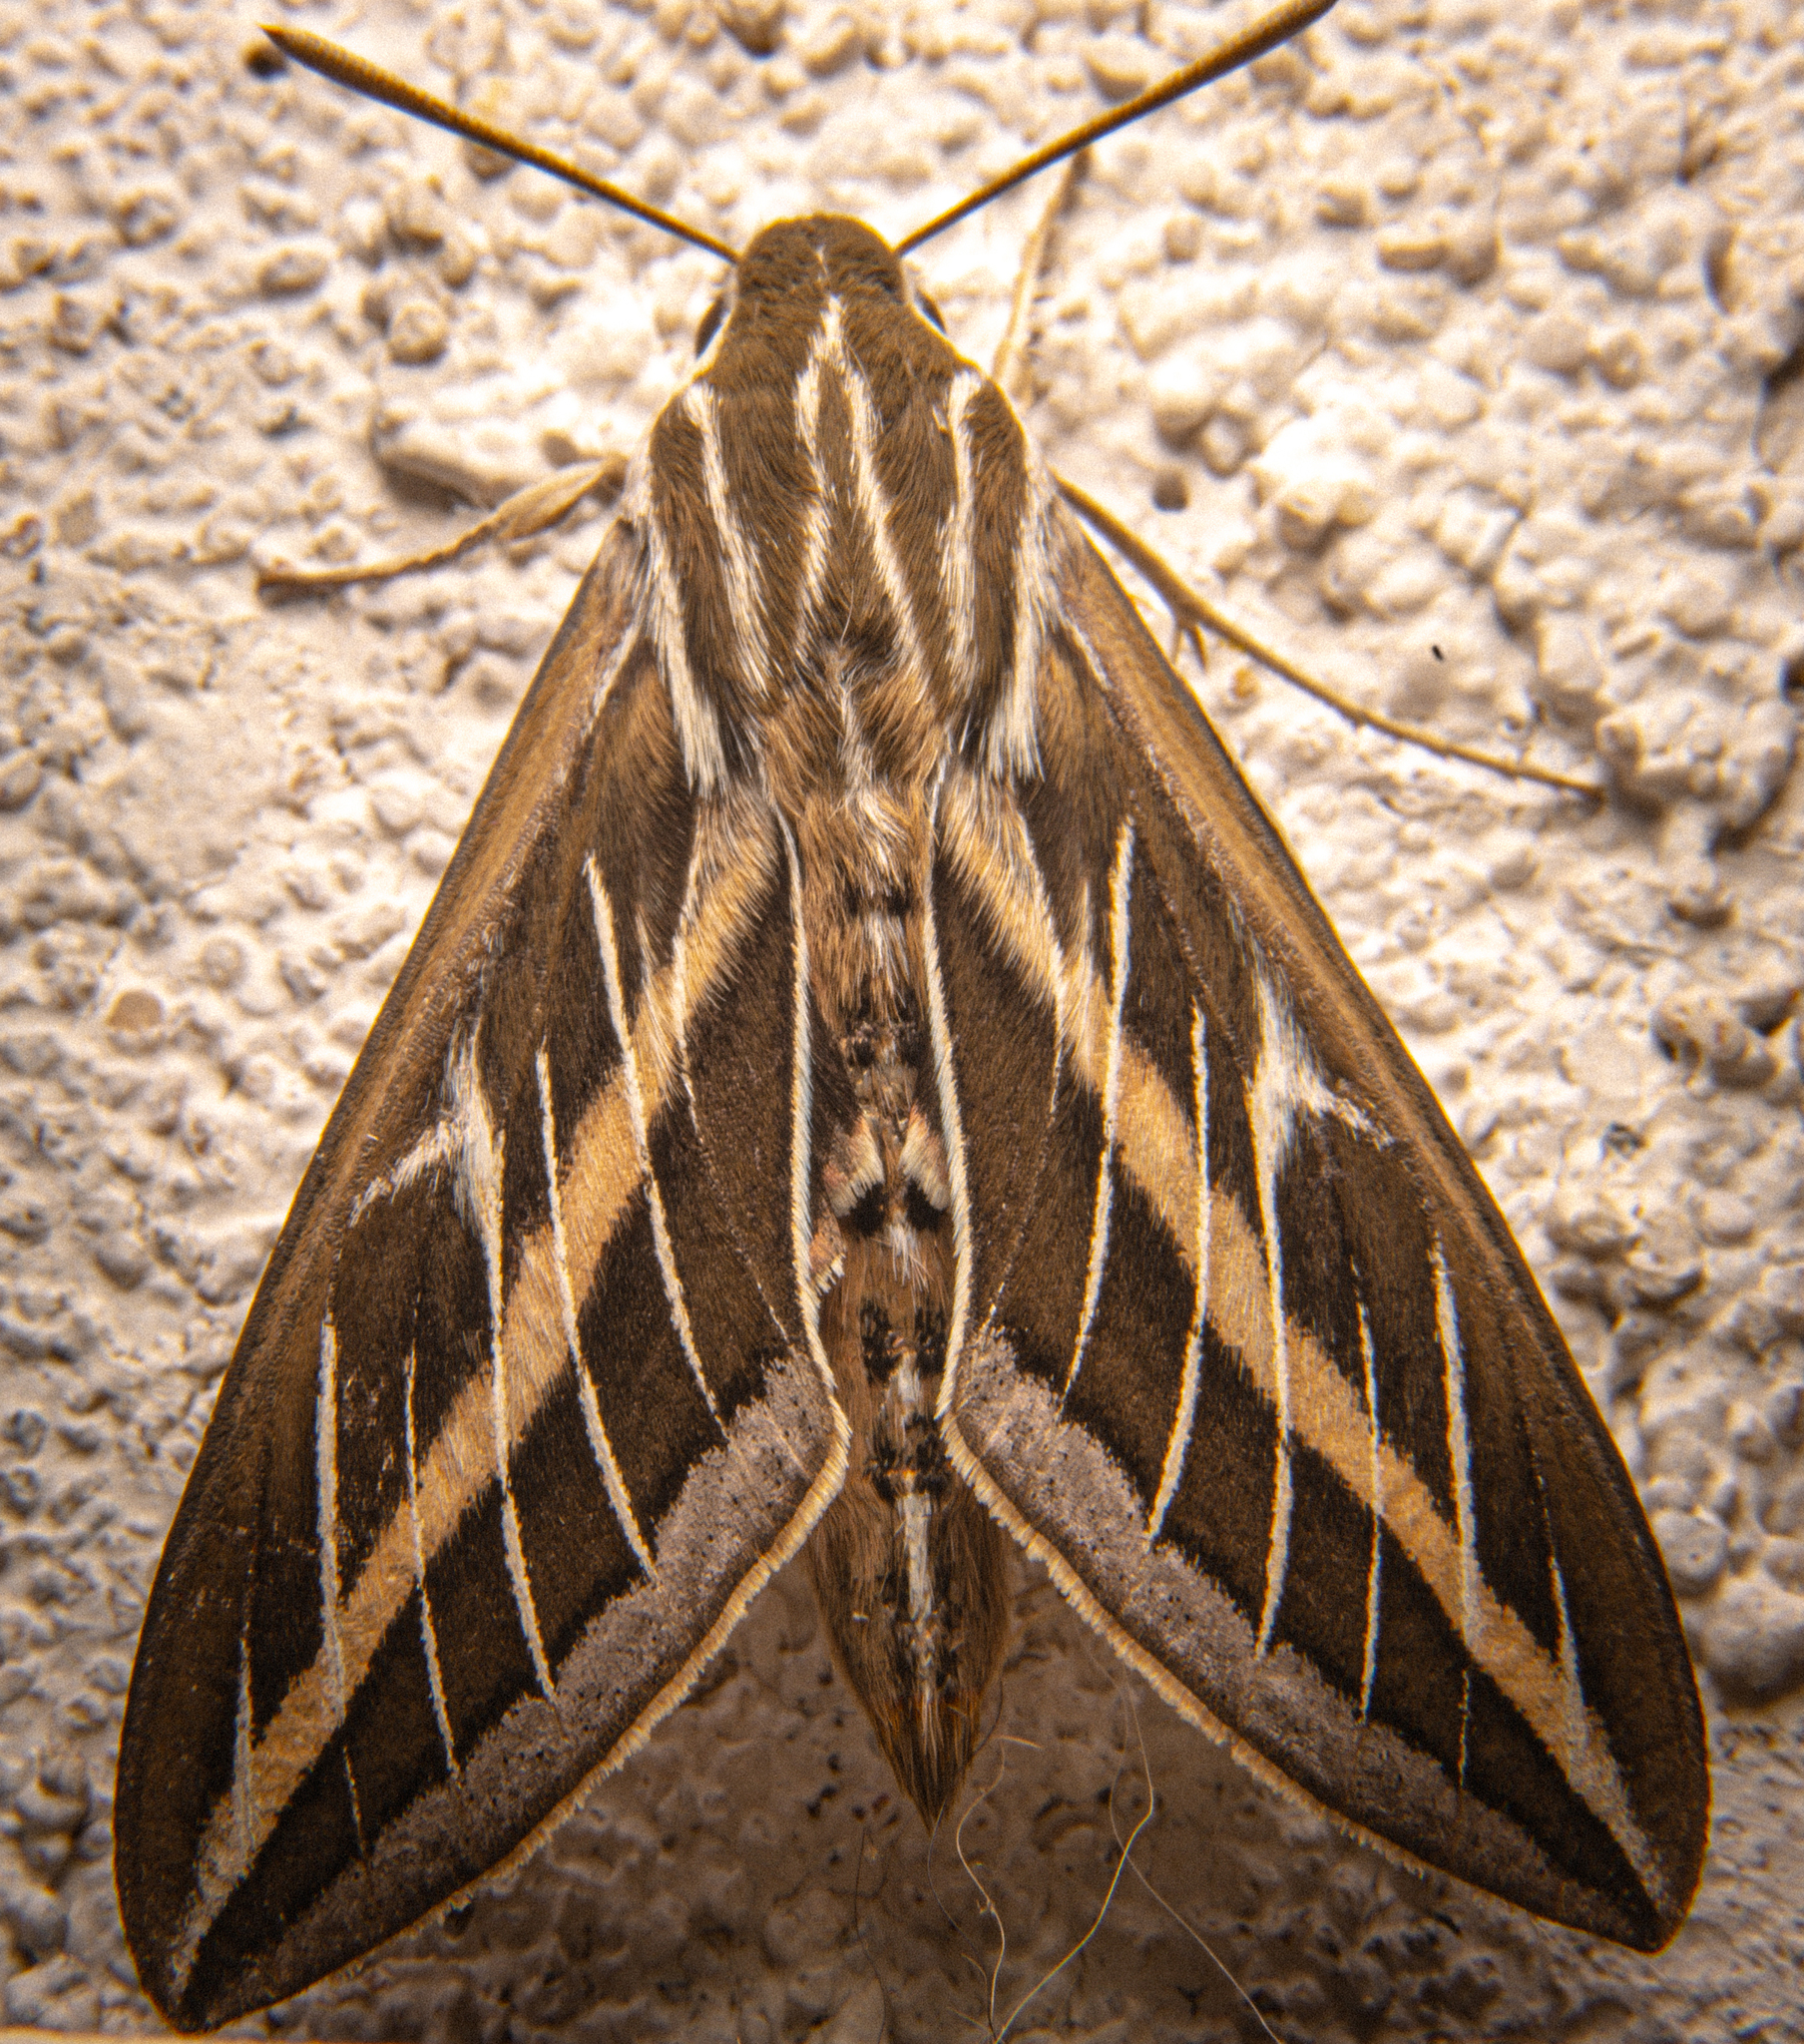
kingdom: Animalia
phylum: Arthropoda
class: Insecta
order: Lepidoptera
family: Sphingidae
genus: Hyles
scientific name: Hyles lineata
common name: White-lined sphinx
